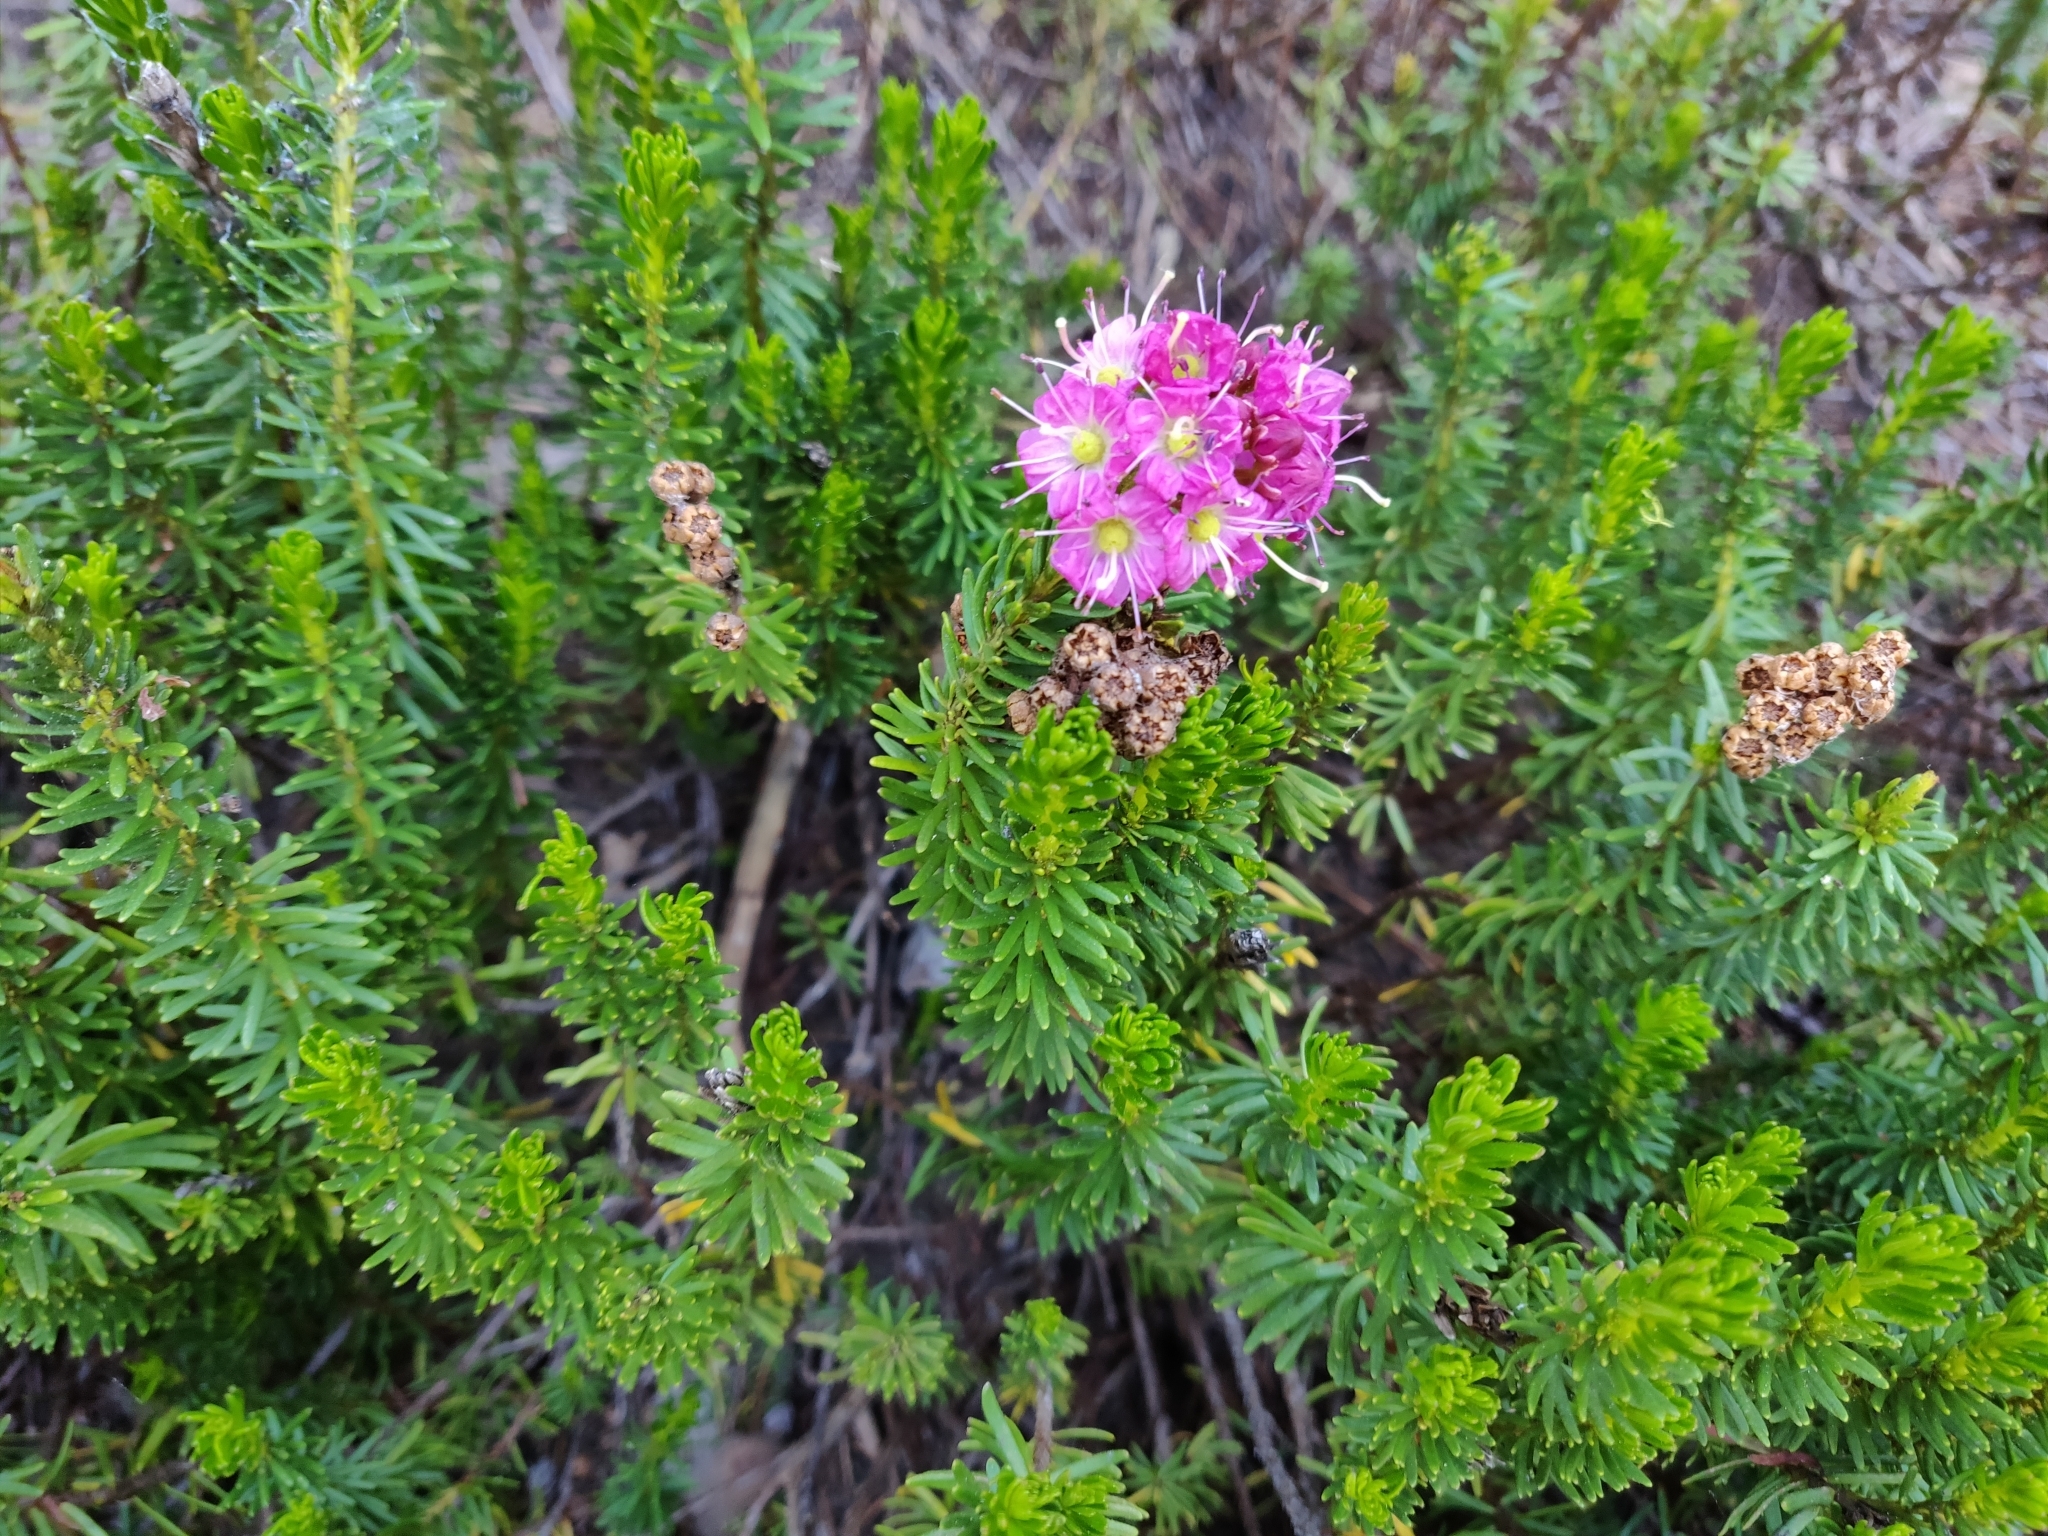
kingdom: Plantae
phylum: Tracheophyta
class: Magnoliopsida
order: Ericales
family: Ericaceae
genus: Phyllodoce
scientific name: Phyllodoce breweri
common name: Brewer's mountain-heather
